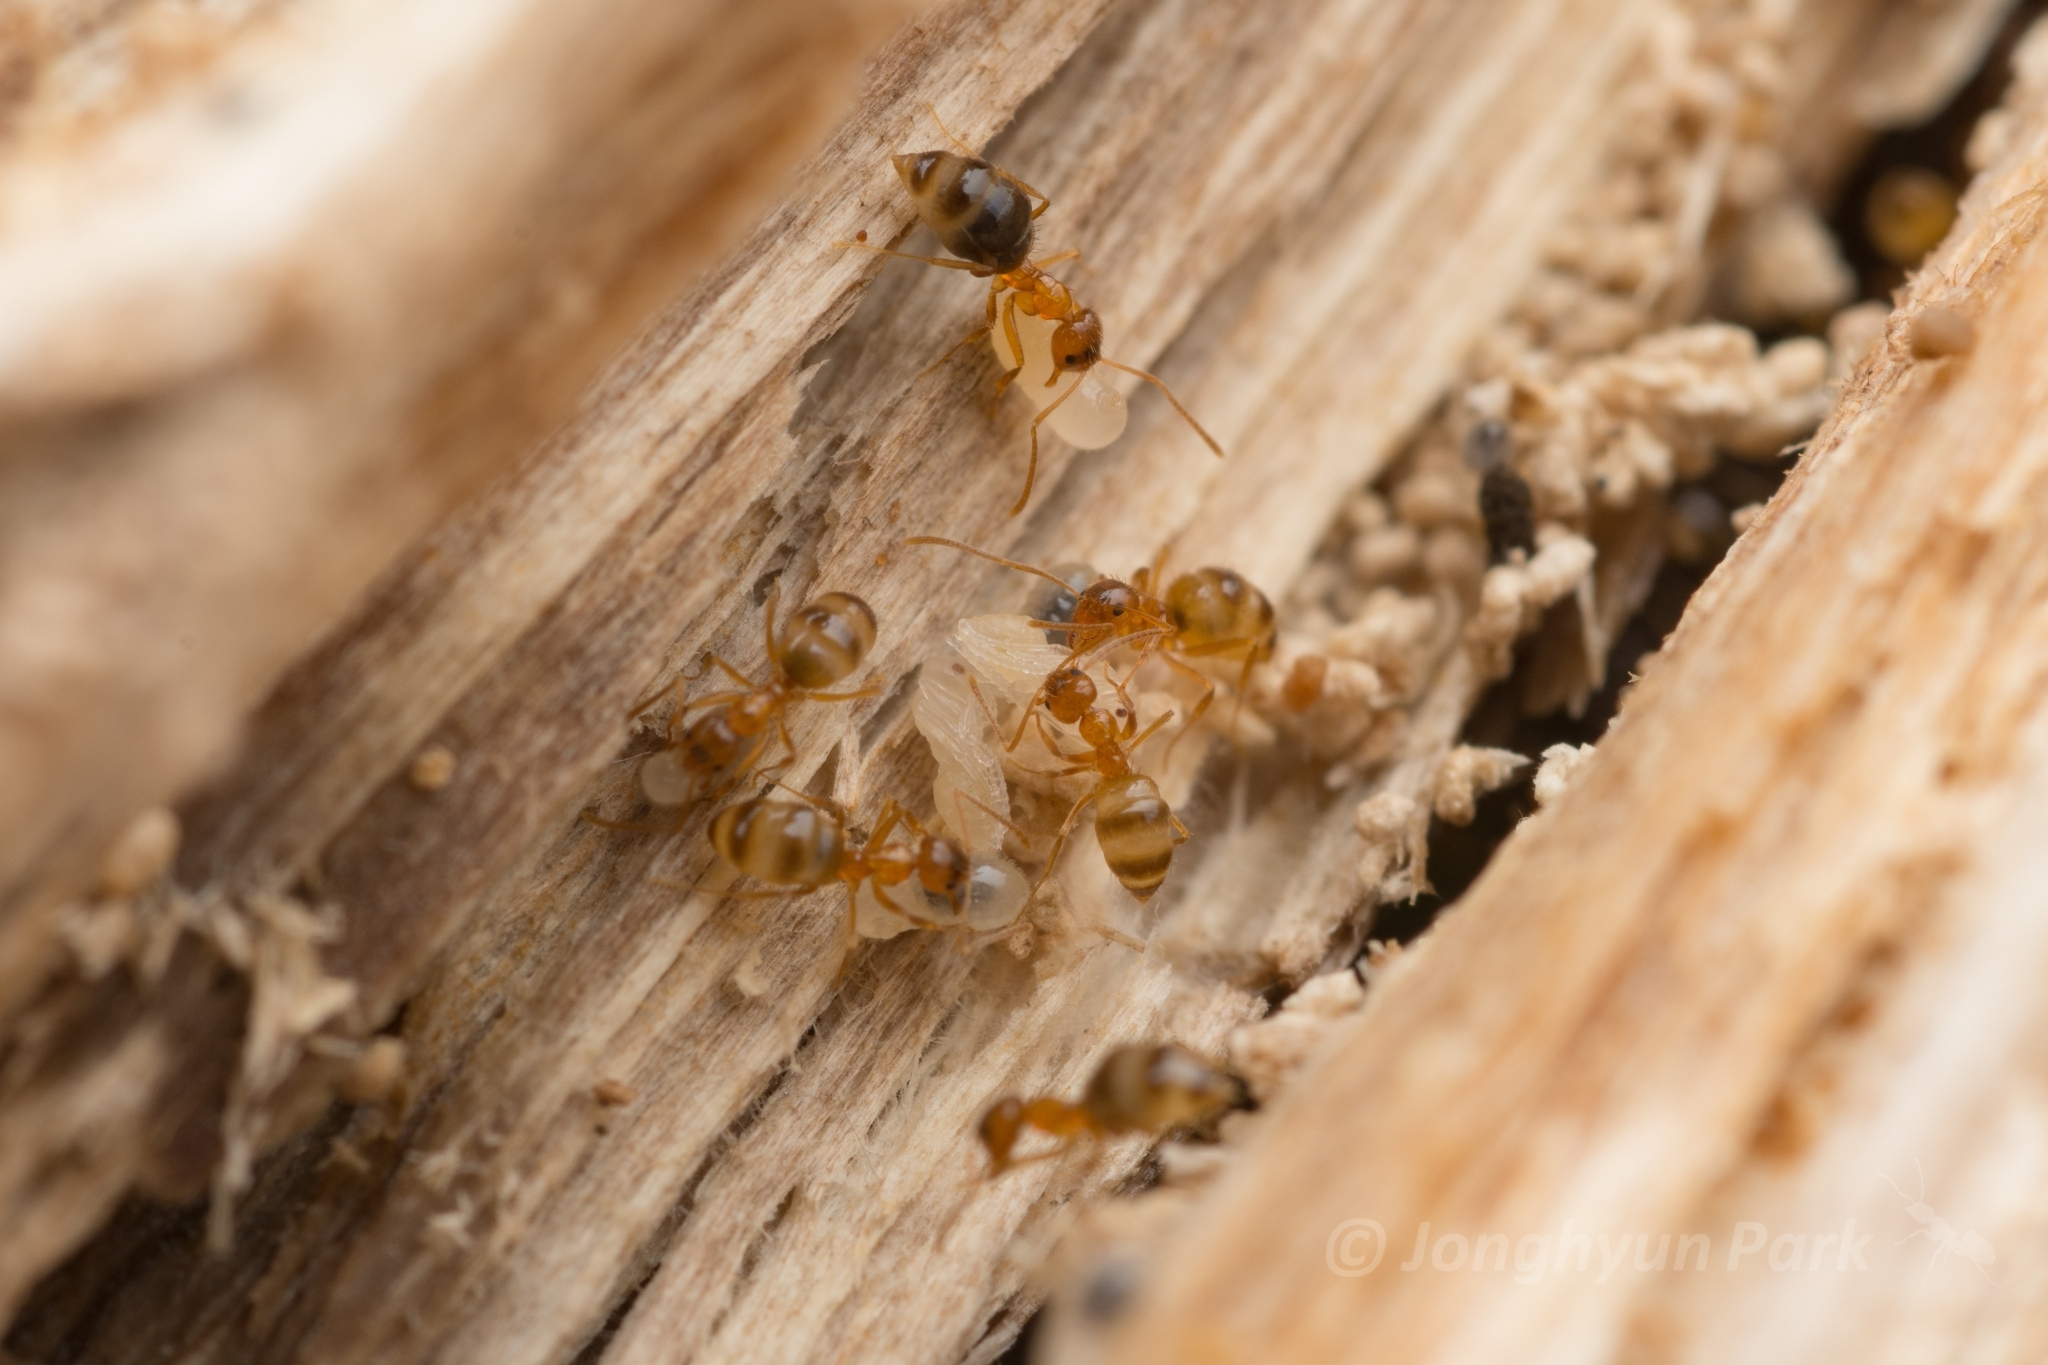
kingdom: Animalia
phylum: Arthropoda
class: Insecta
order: Hymenoptera
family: Formicidae
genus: Paratrechina
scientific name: Paratrechina flavipes
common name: Eastern asian formicine ant
